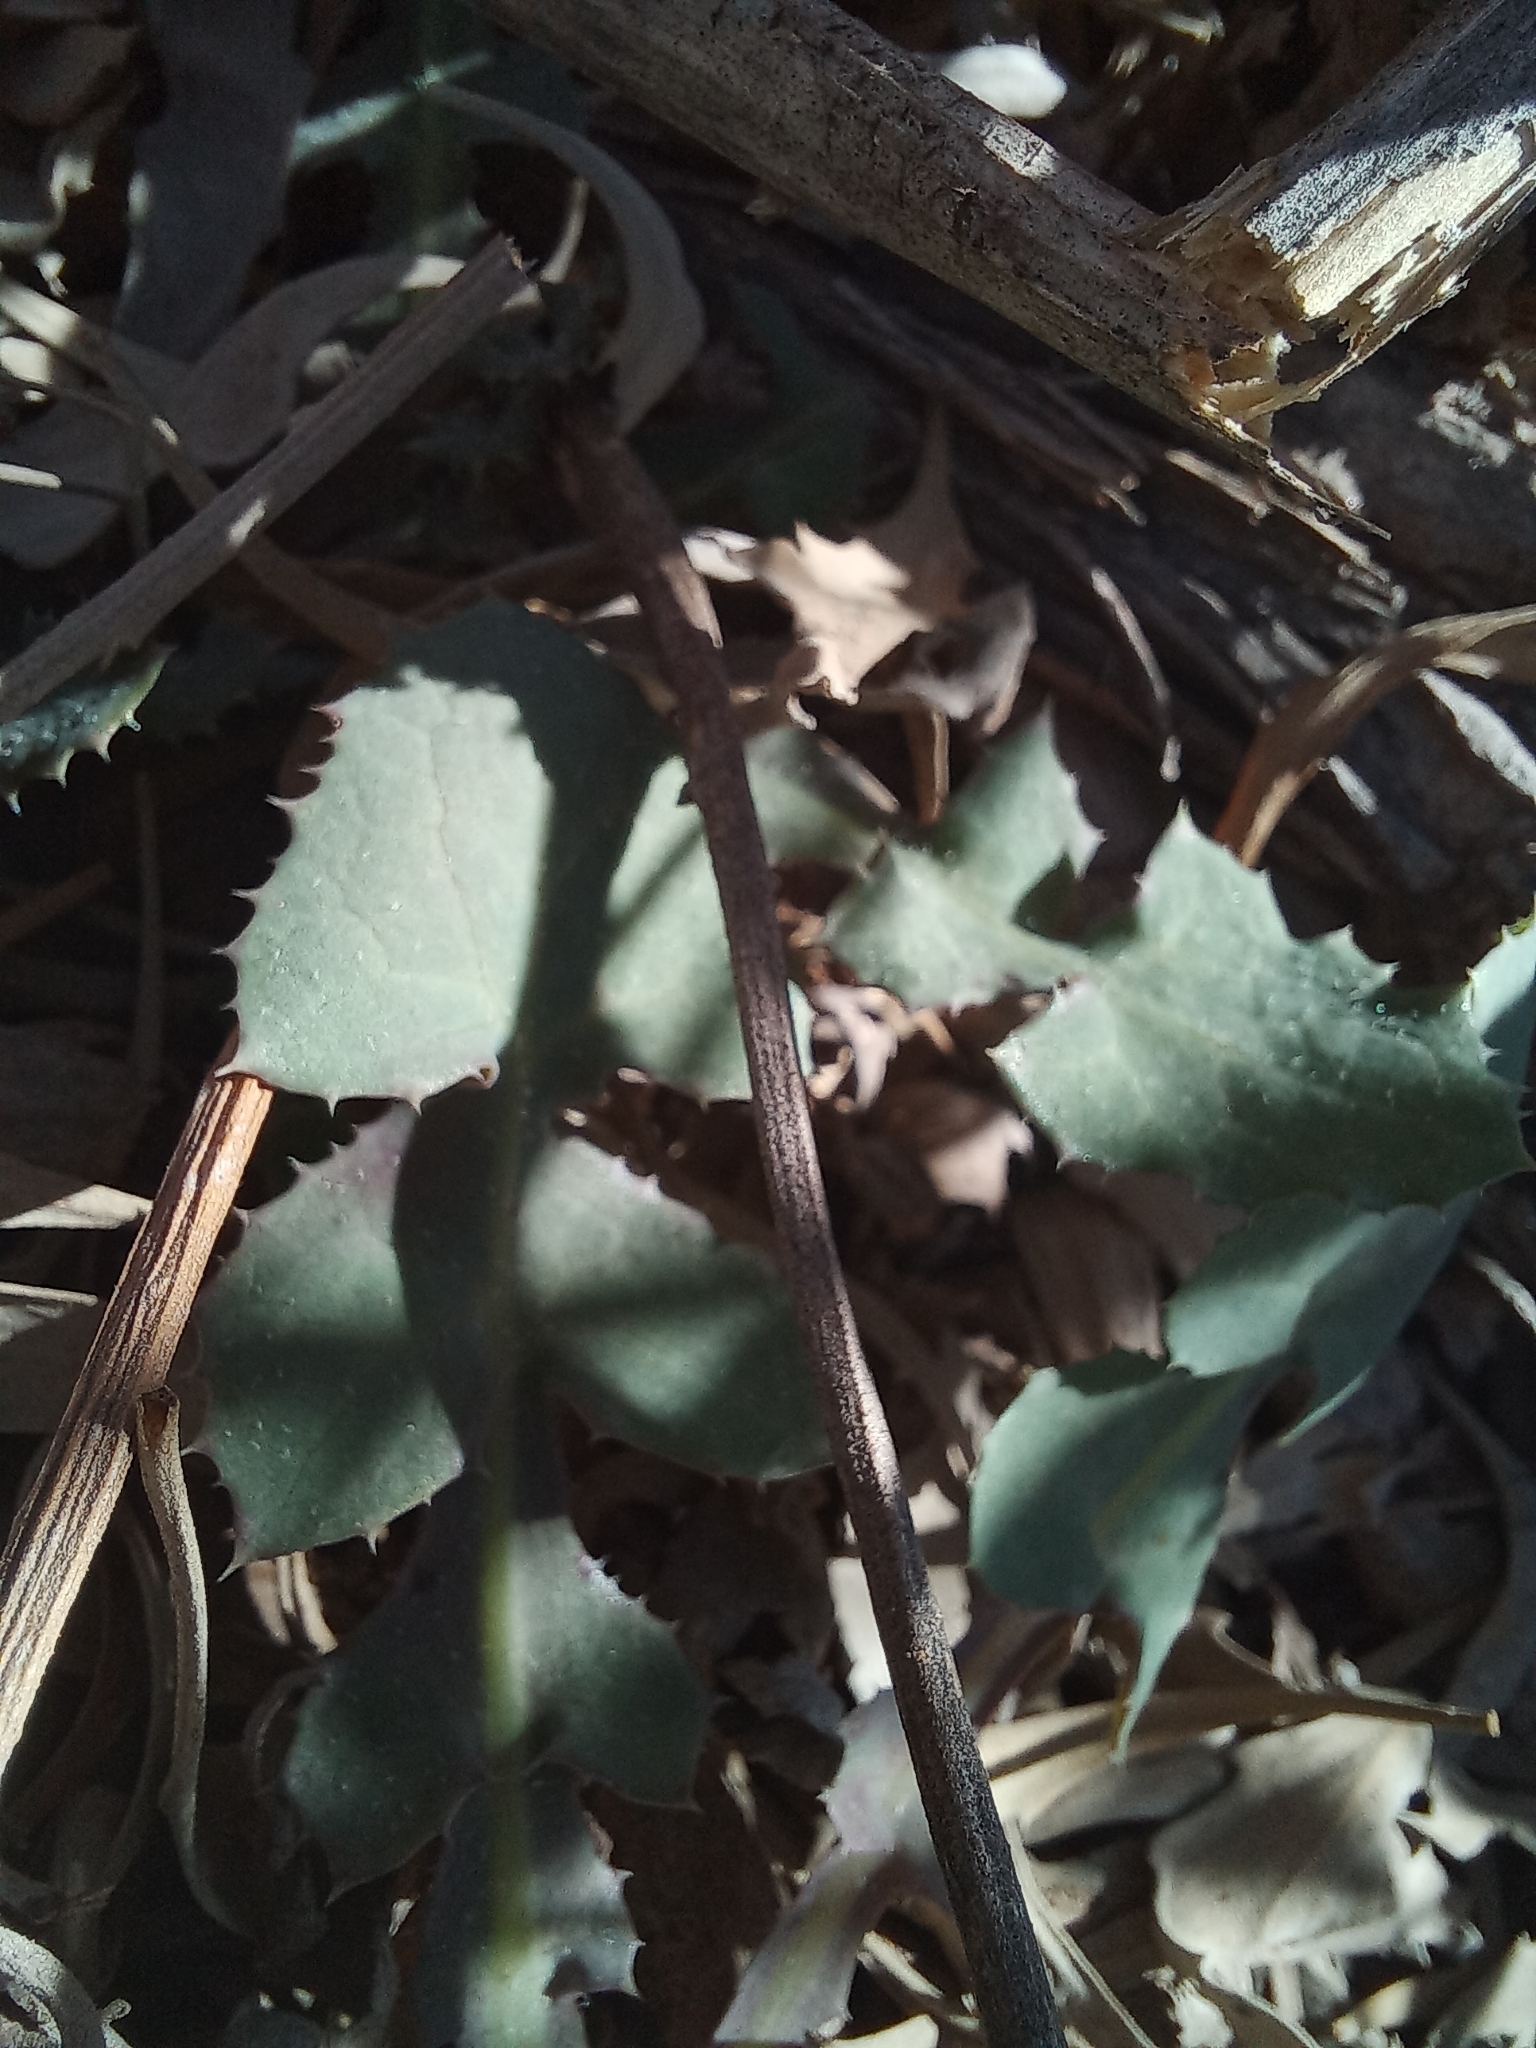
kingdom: Plantae
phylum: Tracheophyta
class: Magnoliopsida
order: Asterales
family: Asteraceae
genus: Sonchus
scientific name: Sonchus oleraceus
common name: Common sowthistle
